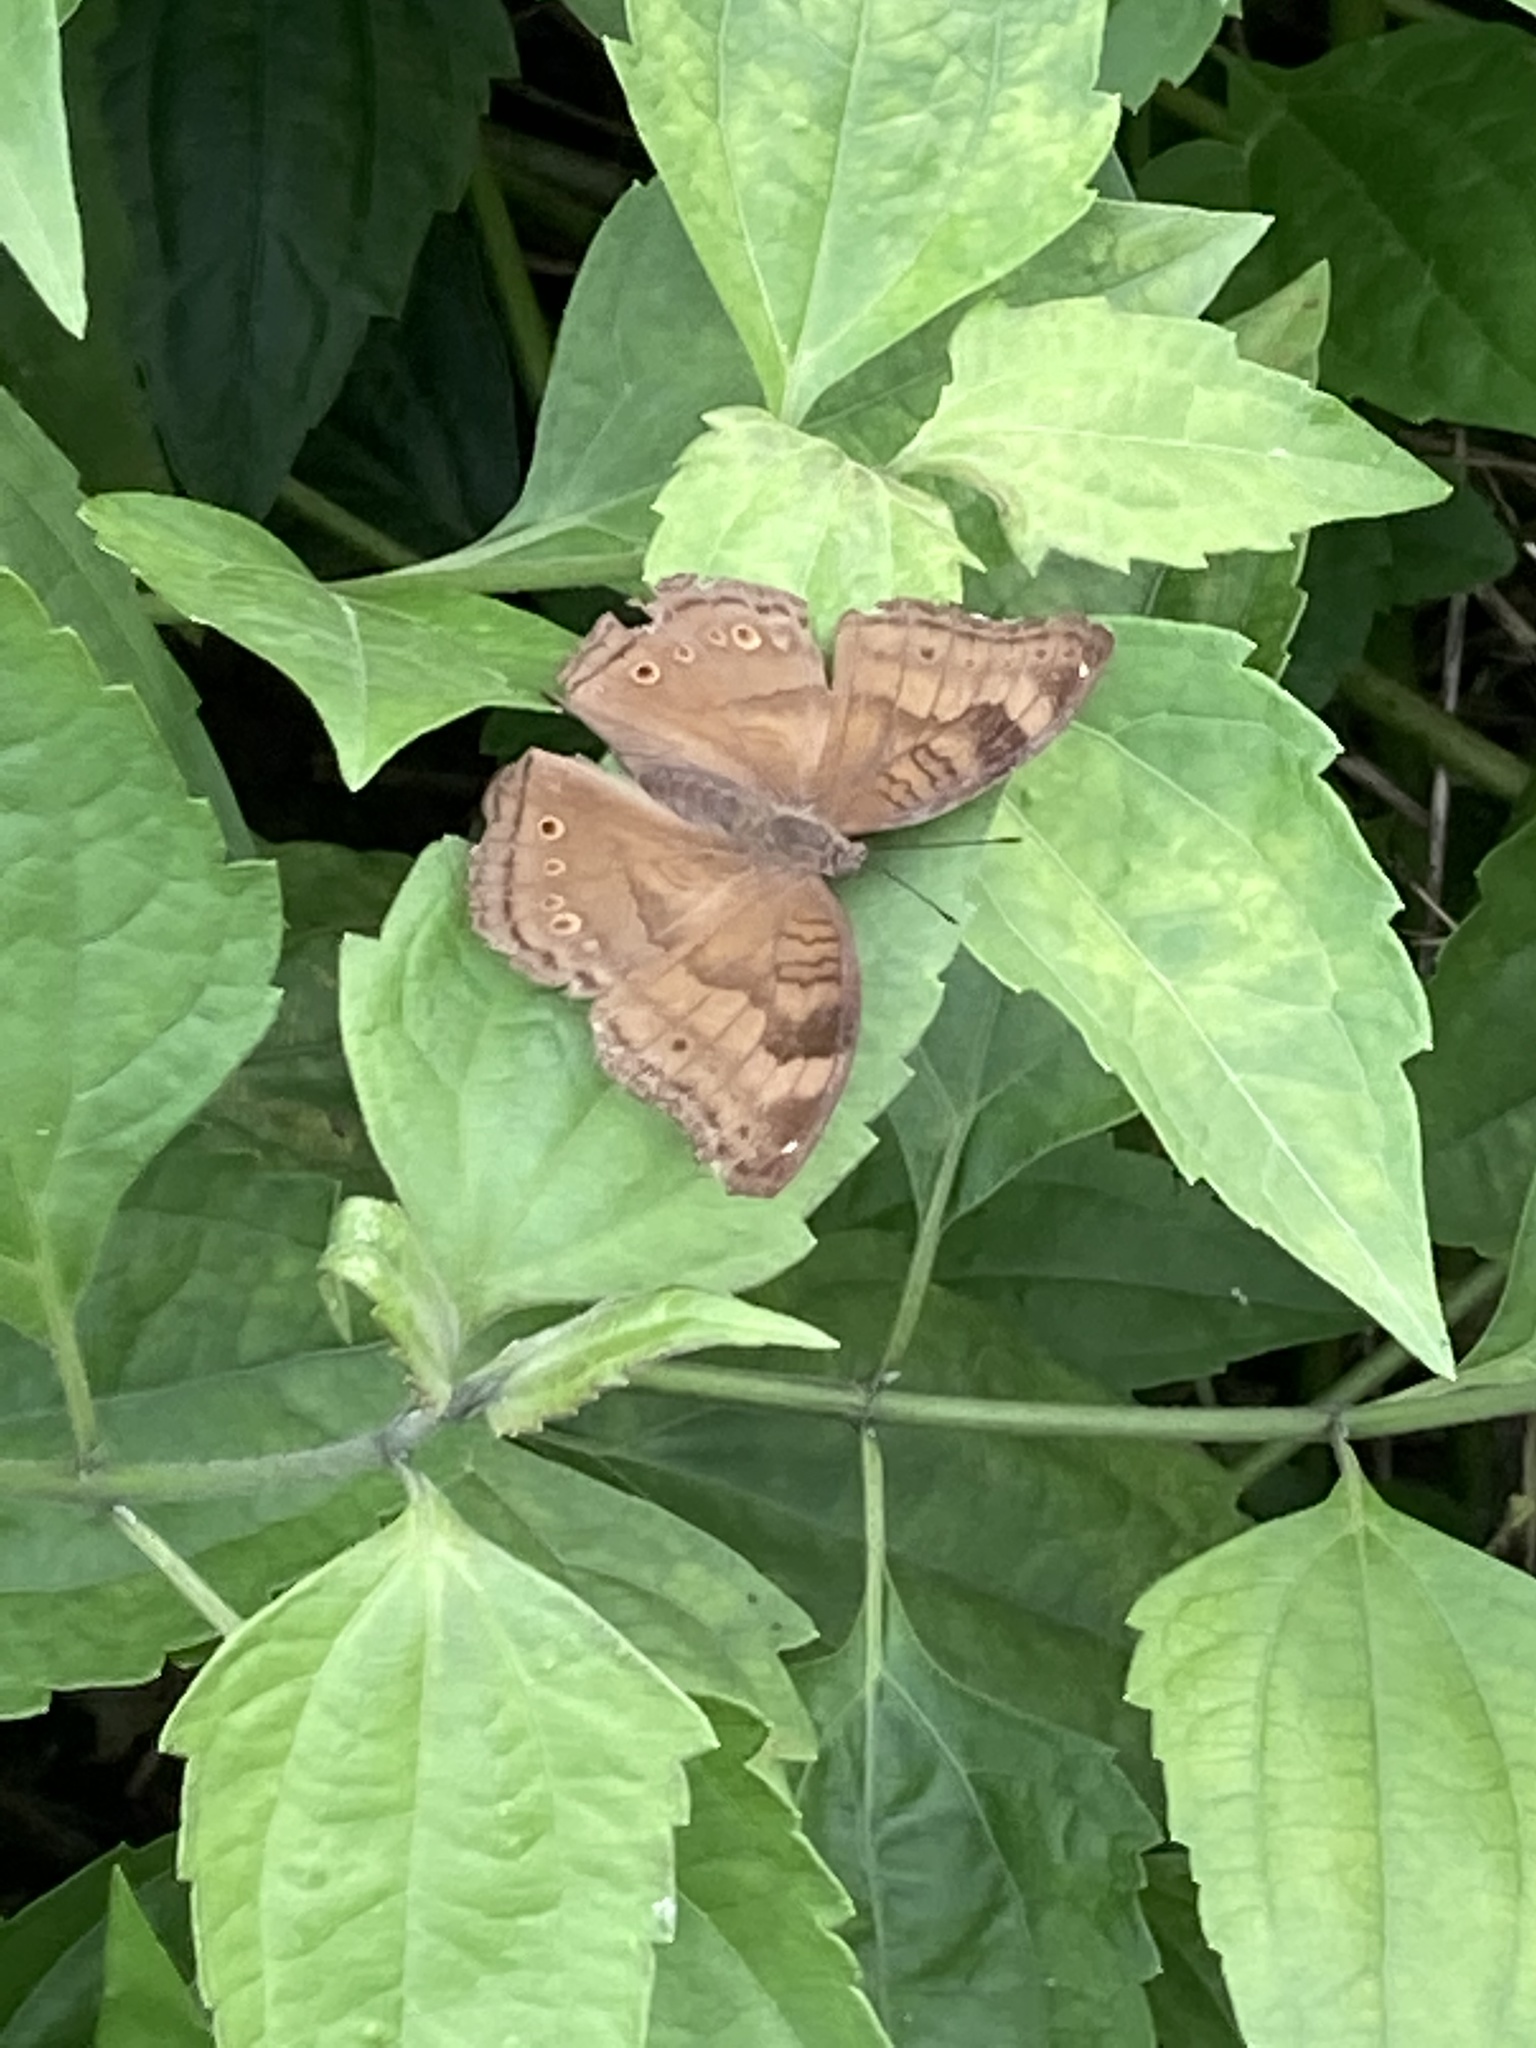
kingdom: Animalia
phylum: Arthropoda
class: Insecta
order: Lepidoptera
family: Nymphalidae
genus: Junonia
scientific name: Junonia iphita
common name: Chocolate pansy
